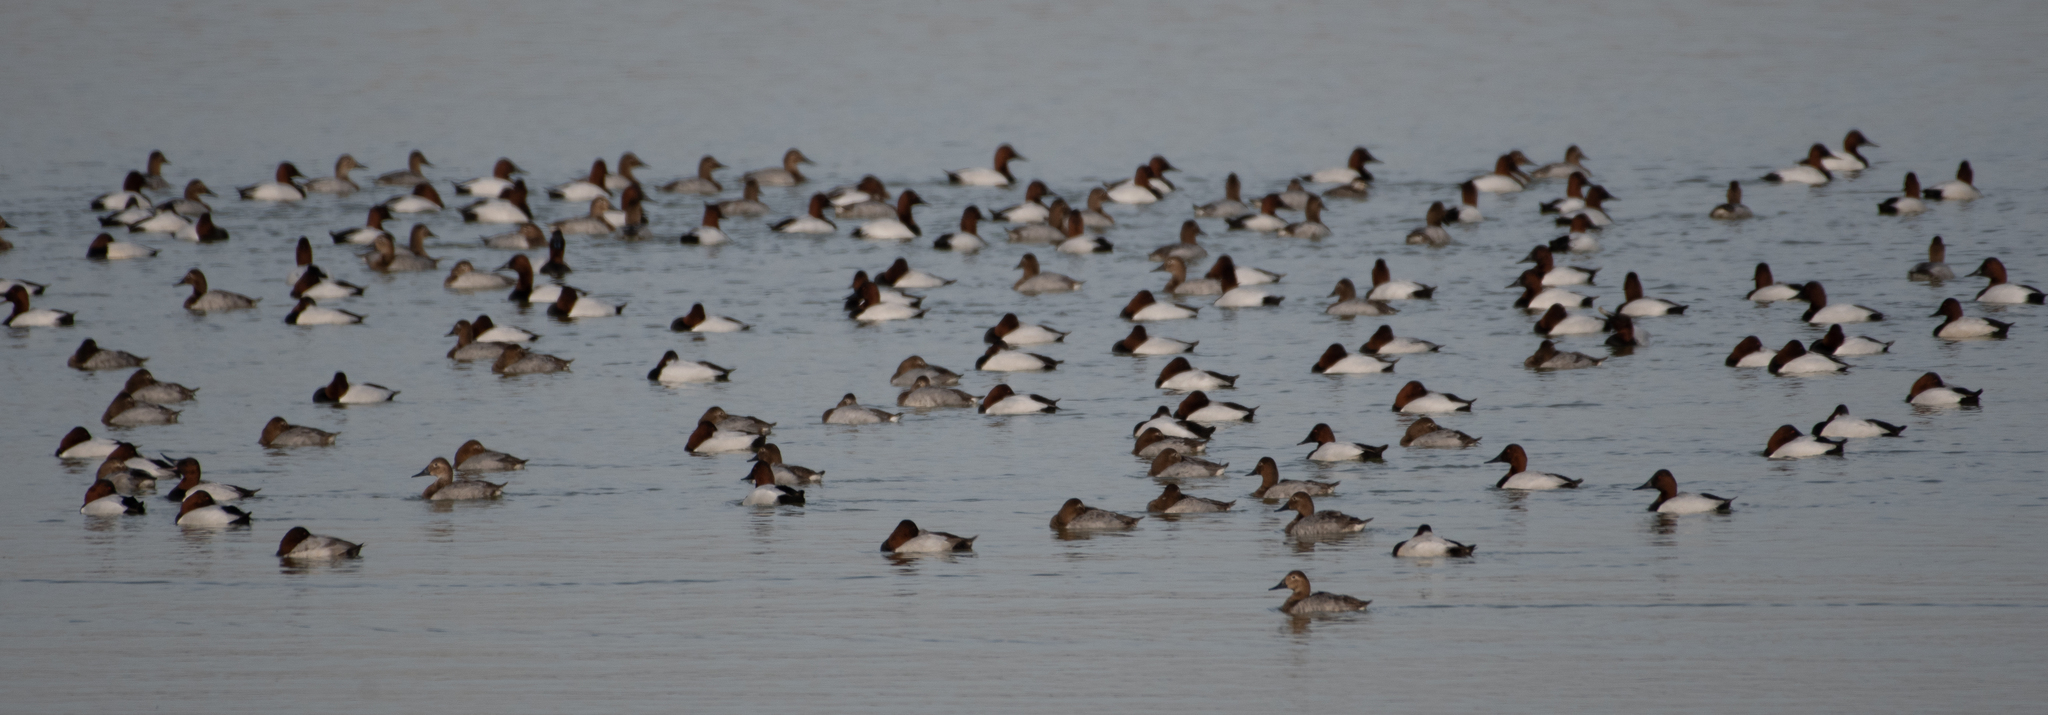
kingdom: Animalia
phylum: Chordata
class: Aves
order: Anseriformes
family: Anatidae
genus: Aythya
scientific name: Aythya valisineria
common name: Canvasback
